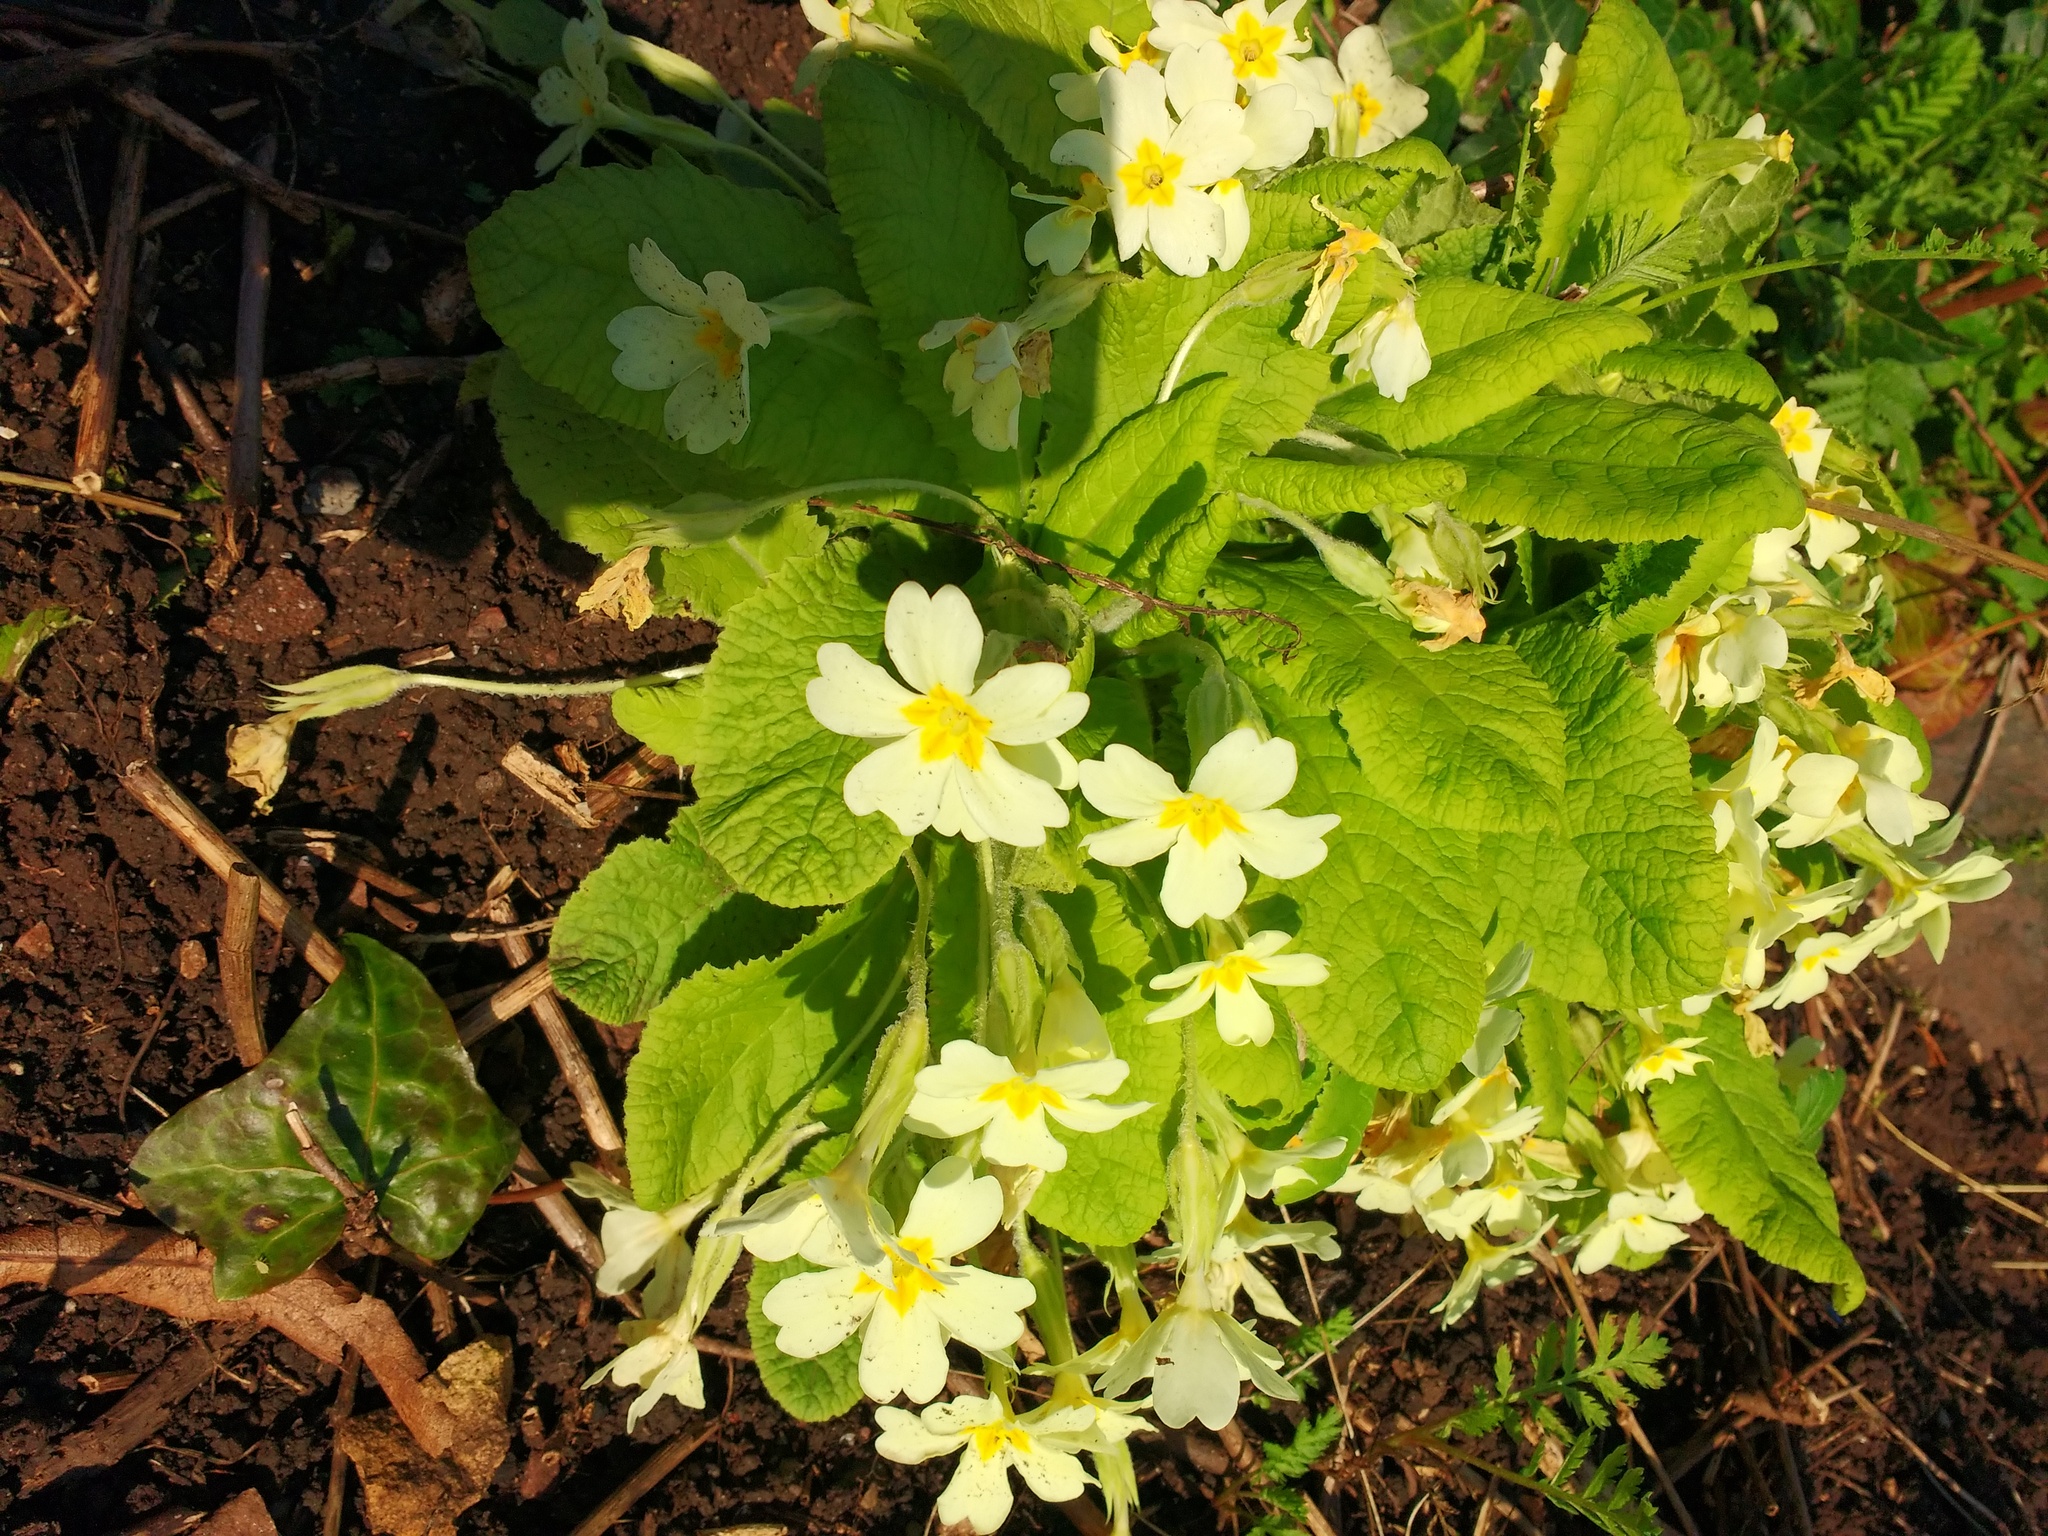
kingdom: Plantae
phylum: Tracheophyta
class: Magnoliopsida
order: Ericales
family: Primulaceae
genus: Primula
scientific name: Primula vulgaris
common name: Primrose
